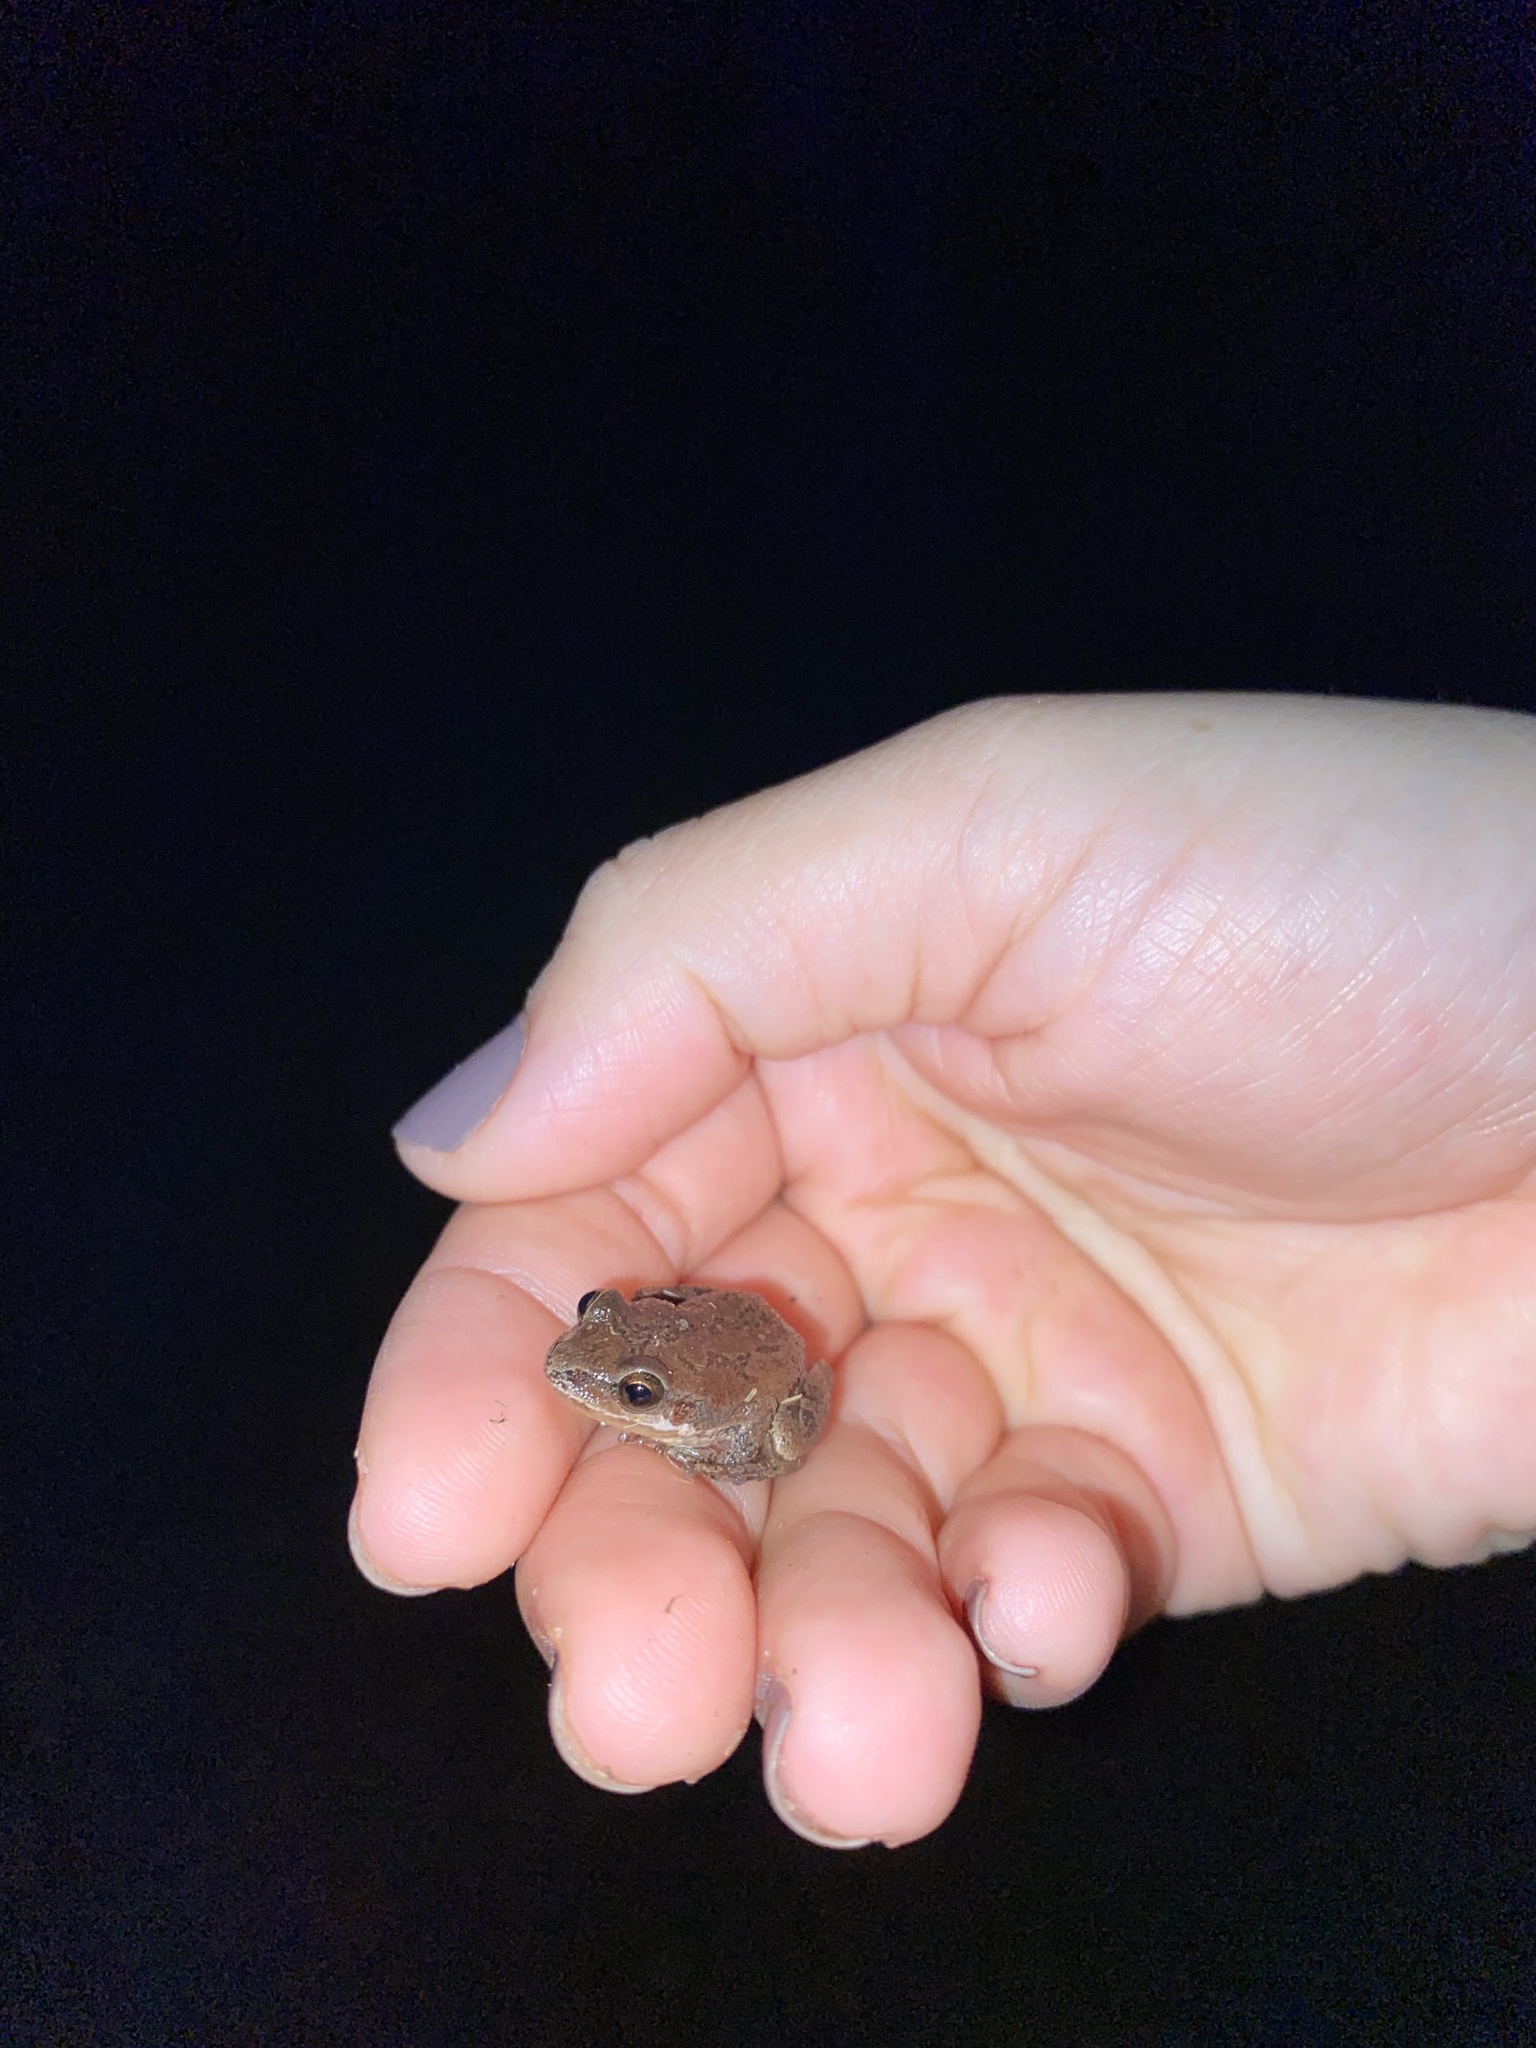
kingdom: Animalia
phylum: Chordata
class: Amphibia
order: Anura
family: Hylidae
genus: Pseudacris
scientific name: Pseudacris feriarum
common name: Upland chorus frog
